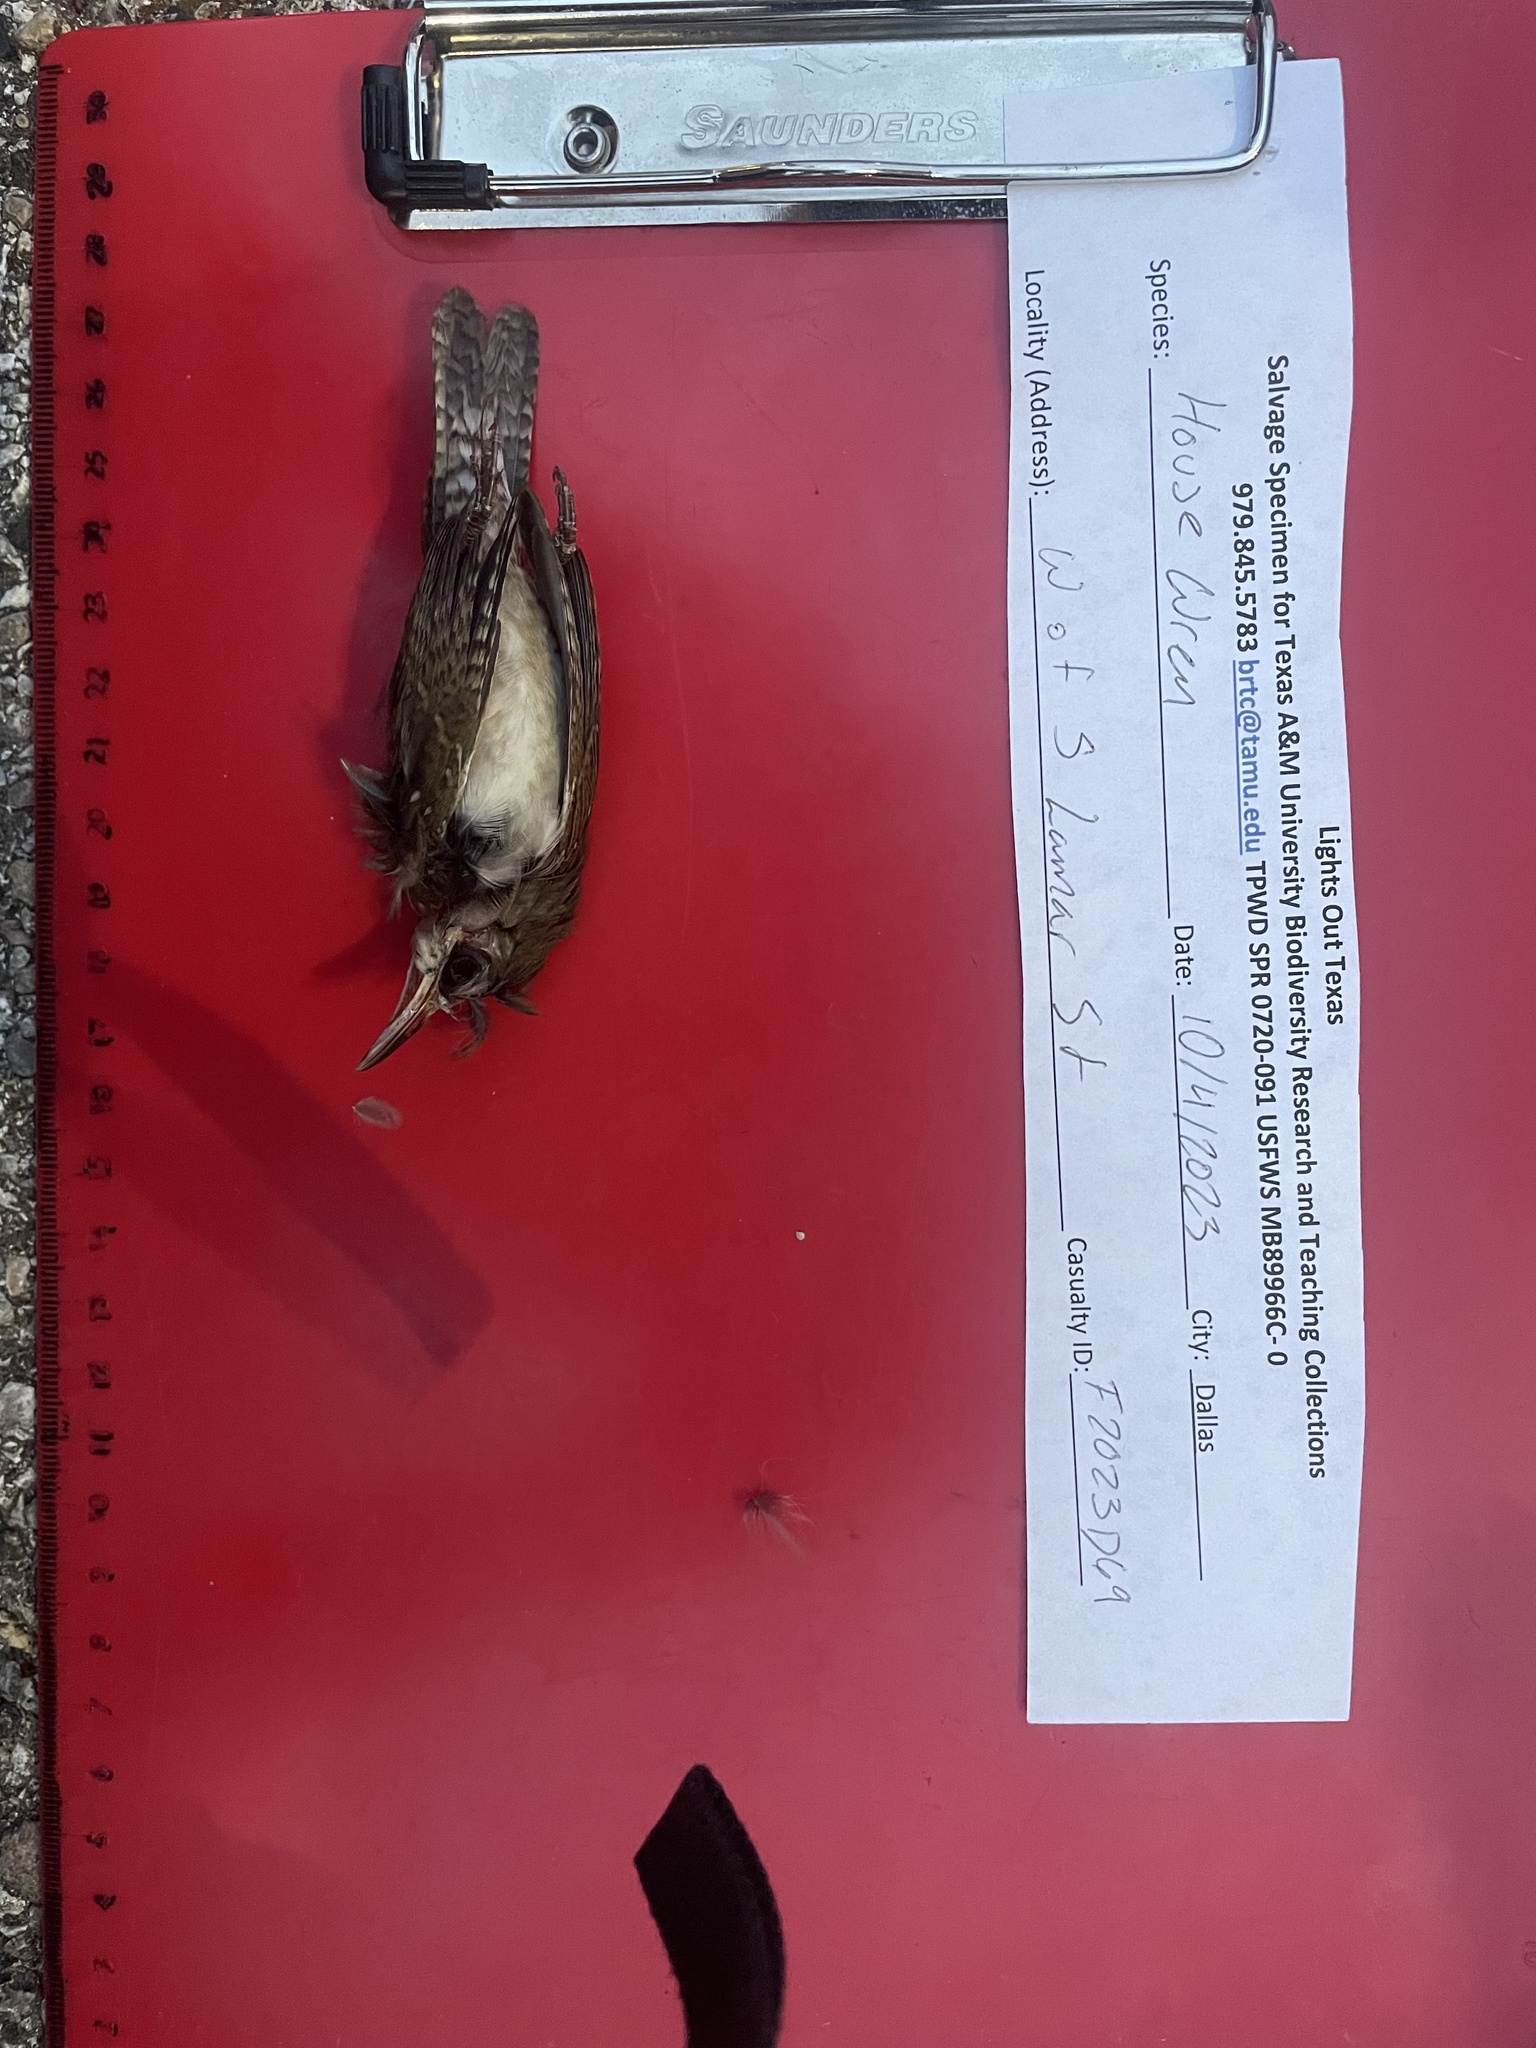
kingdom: Animalia
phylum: Chordata
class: Aves
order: Passeriformes
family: Troglodytidae
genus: Troglodytes
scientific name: Troglodytes aedon
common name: House wren
